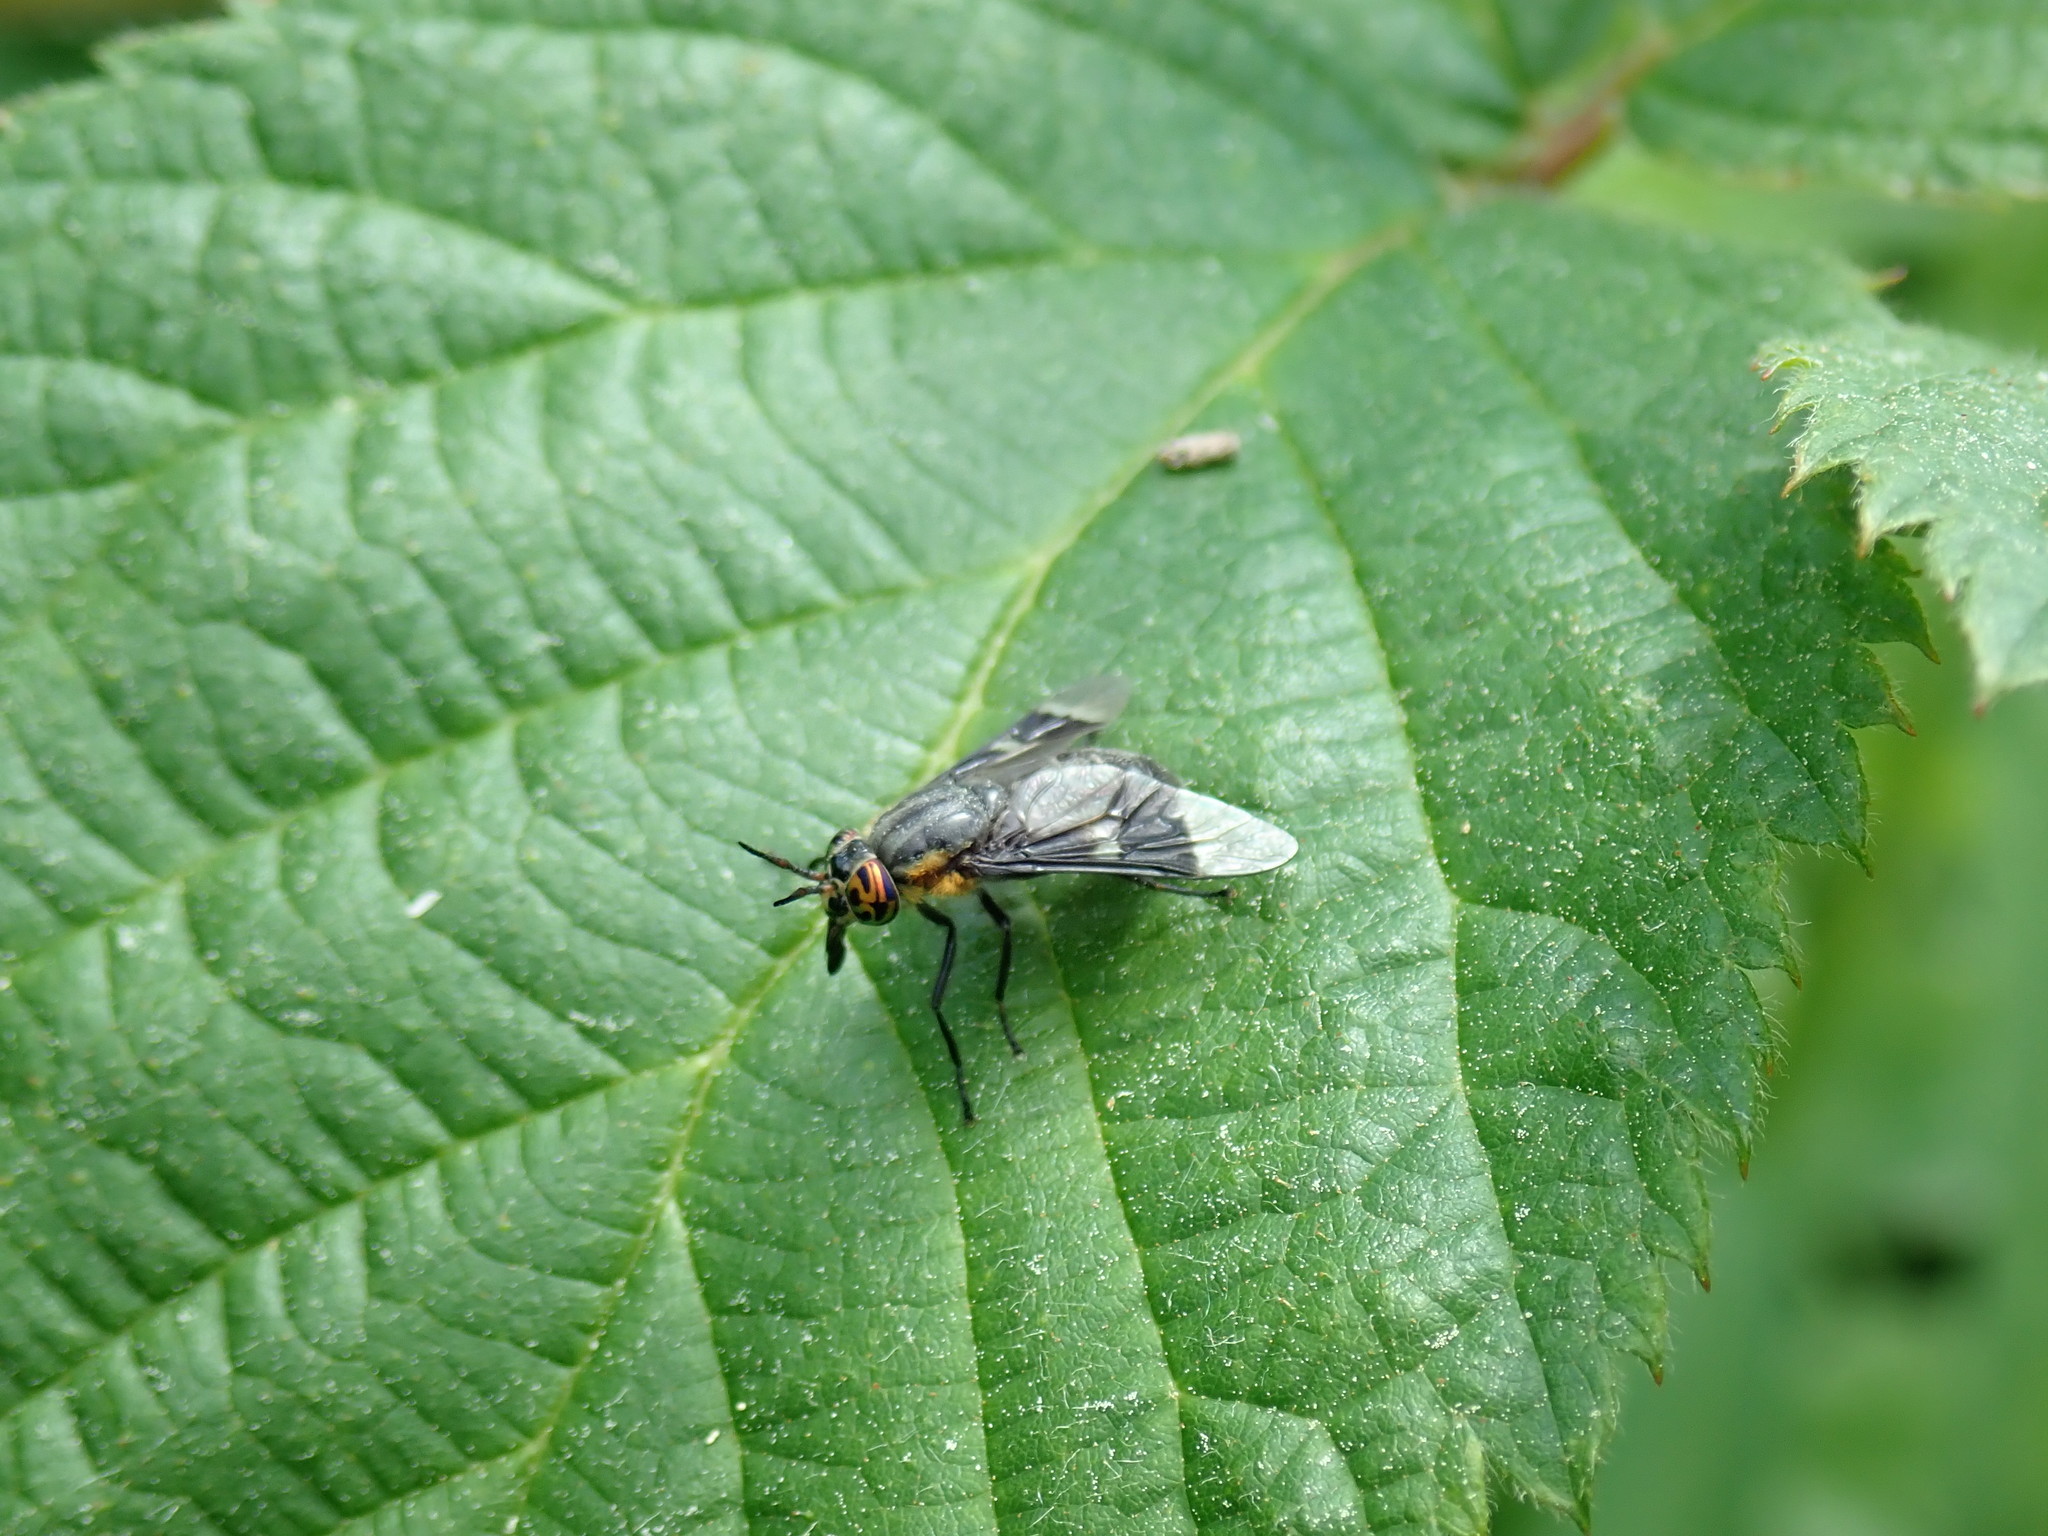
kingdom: Animalia
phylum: Arthropoda
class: Insecta
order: Diptera
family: Tabanidae
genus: Chrysops
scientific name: Chrysops cincticornis
